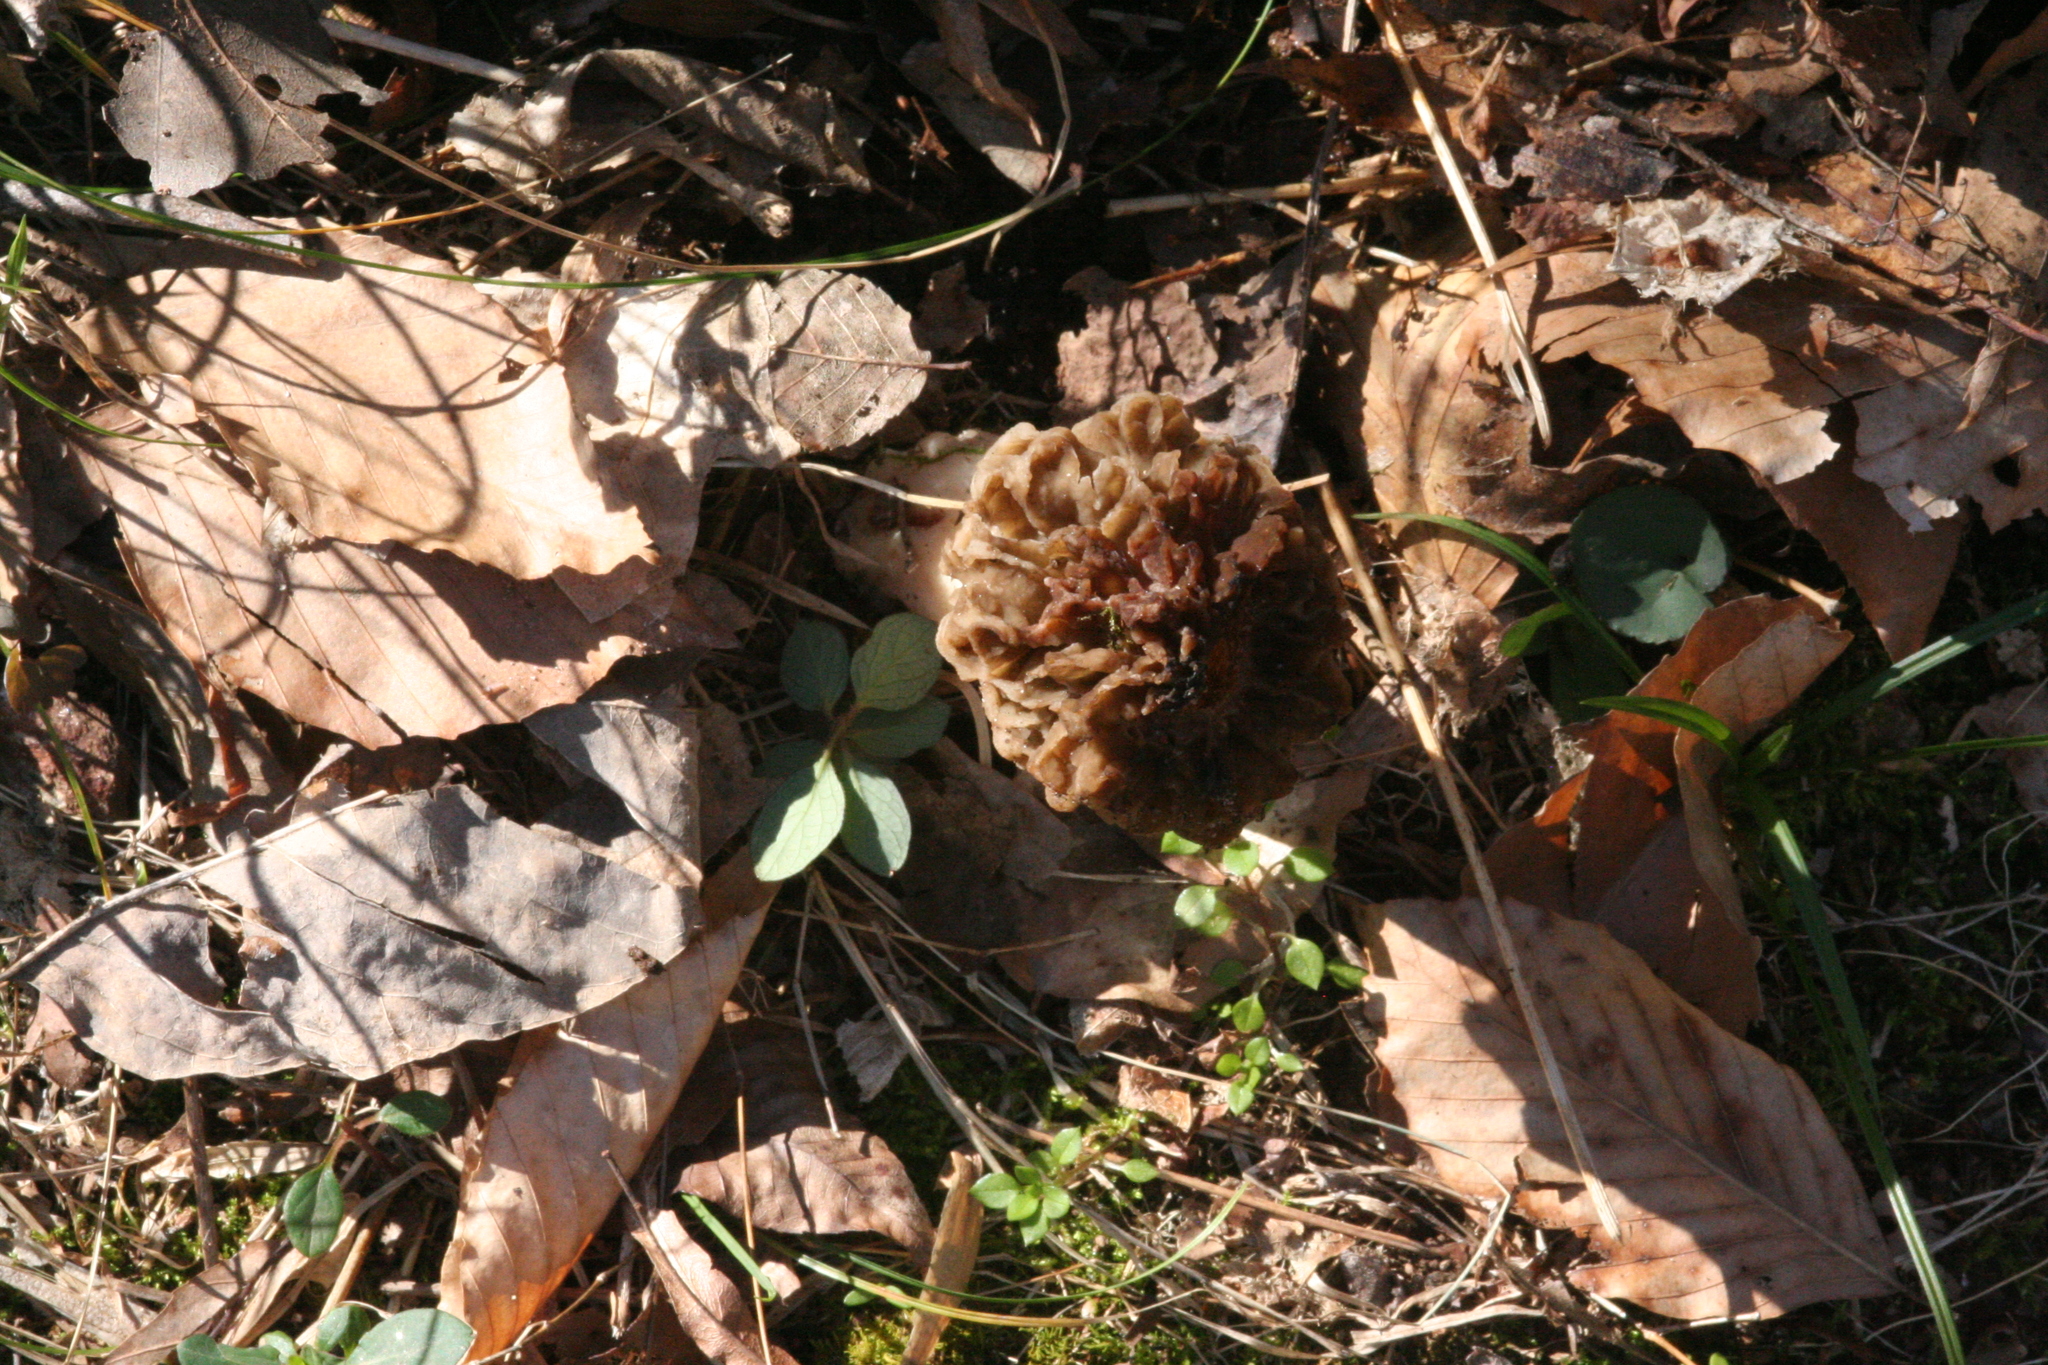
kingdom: Fungi
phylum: Ascomycota
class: Pezizomycetes
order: Pezizales
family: Morchellaceae
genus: Morchella
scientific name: Morchella americana
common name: White morel
